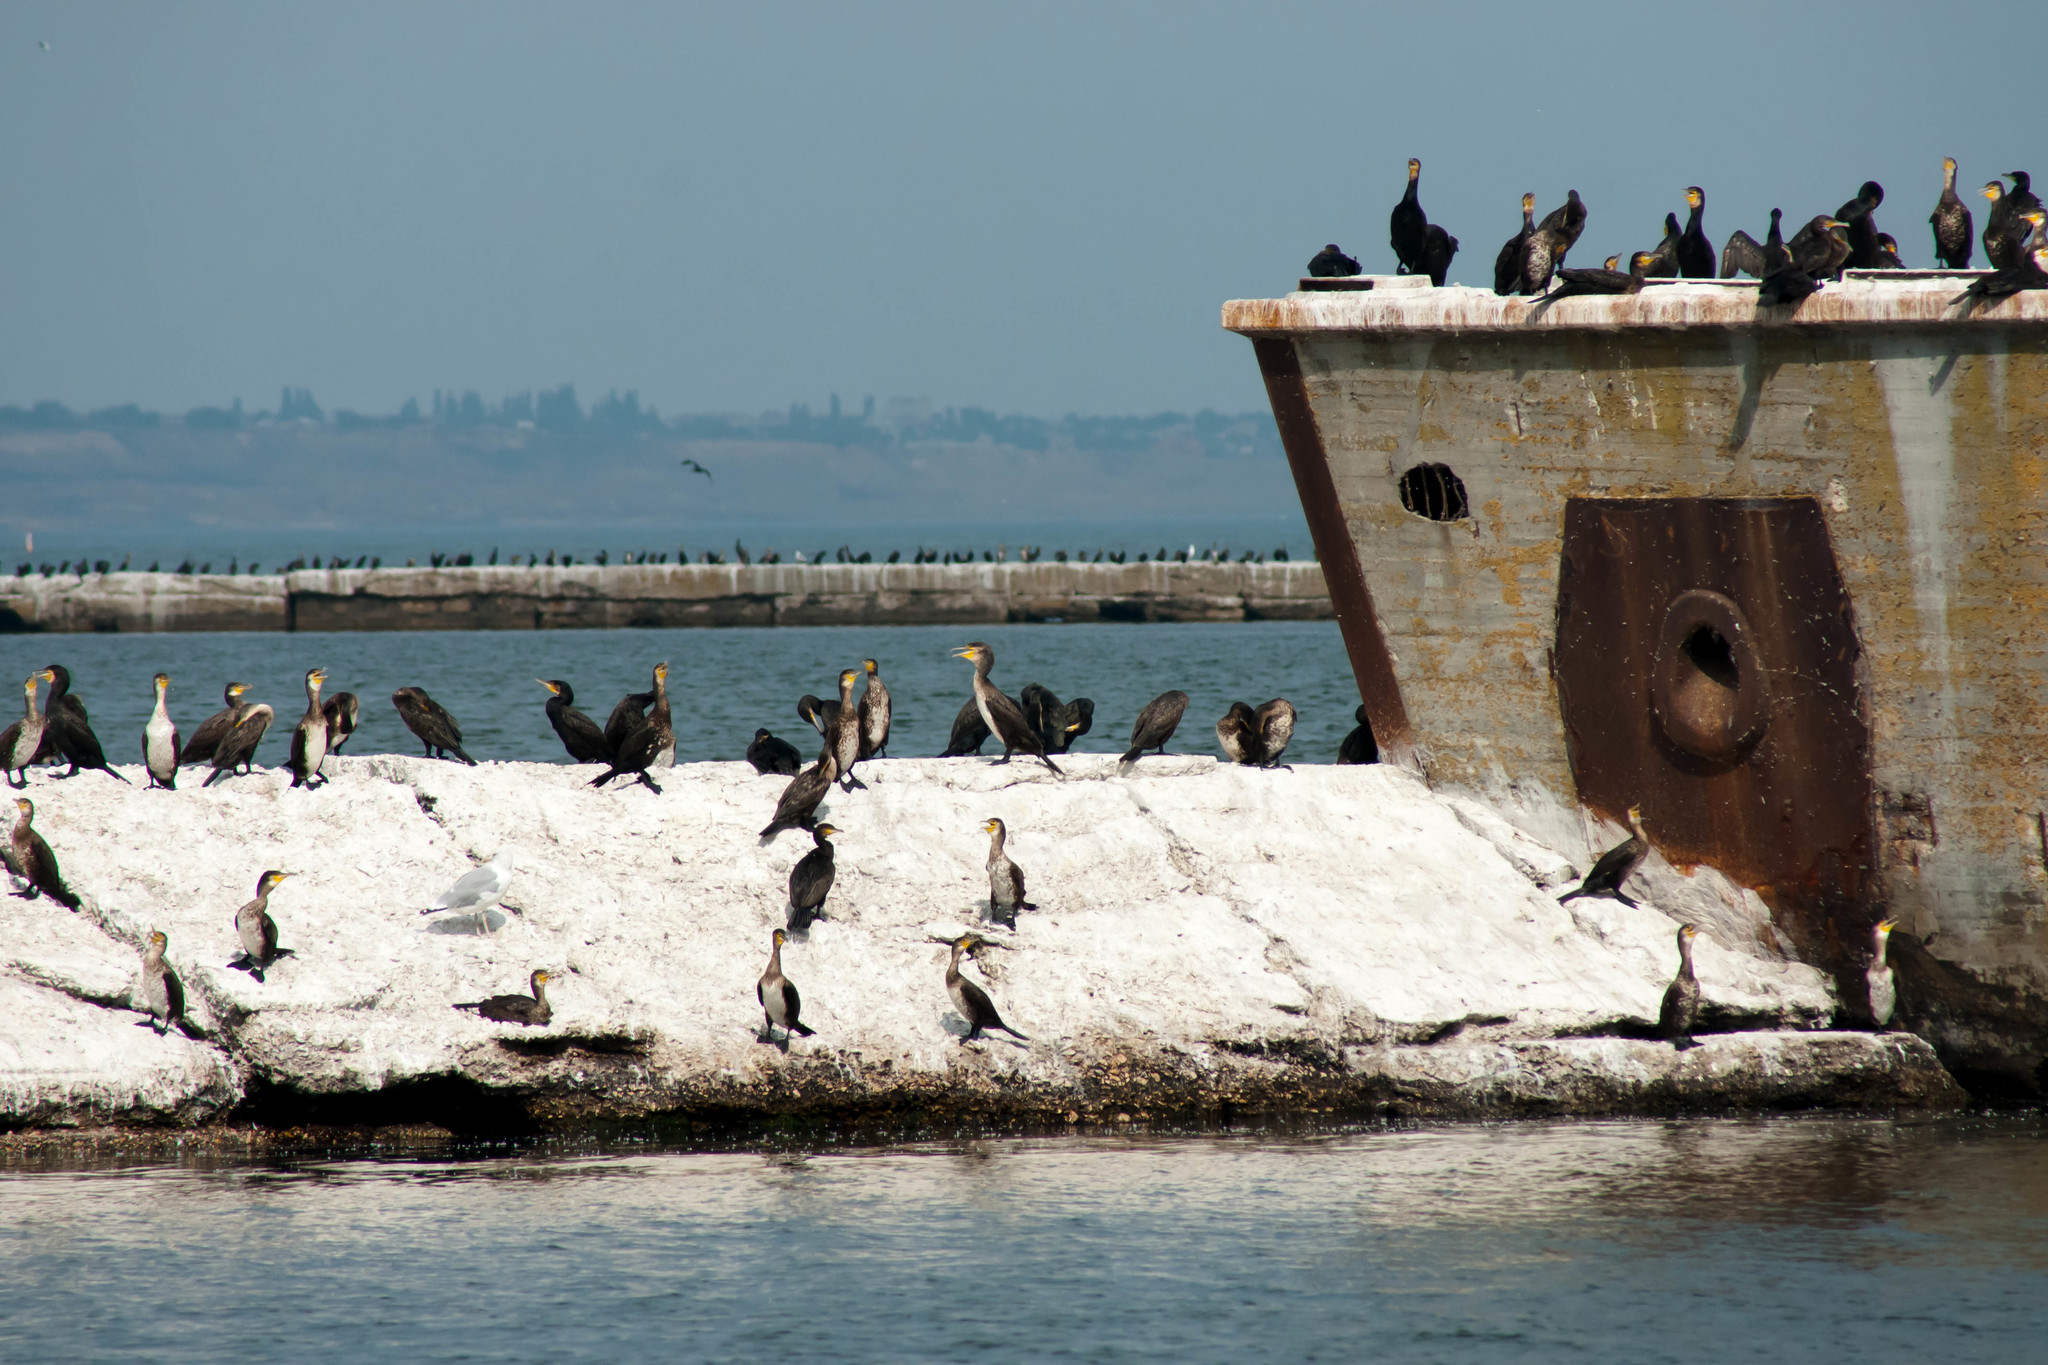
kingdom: Animalia
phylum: Chordata
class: Aves
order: Suliformes
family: Phalacrocoracidae
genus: Phalacrocorax
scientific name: Phalacrocorax carbo
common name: Great cormorant
